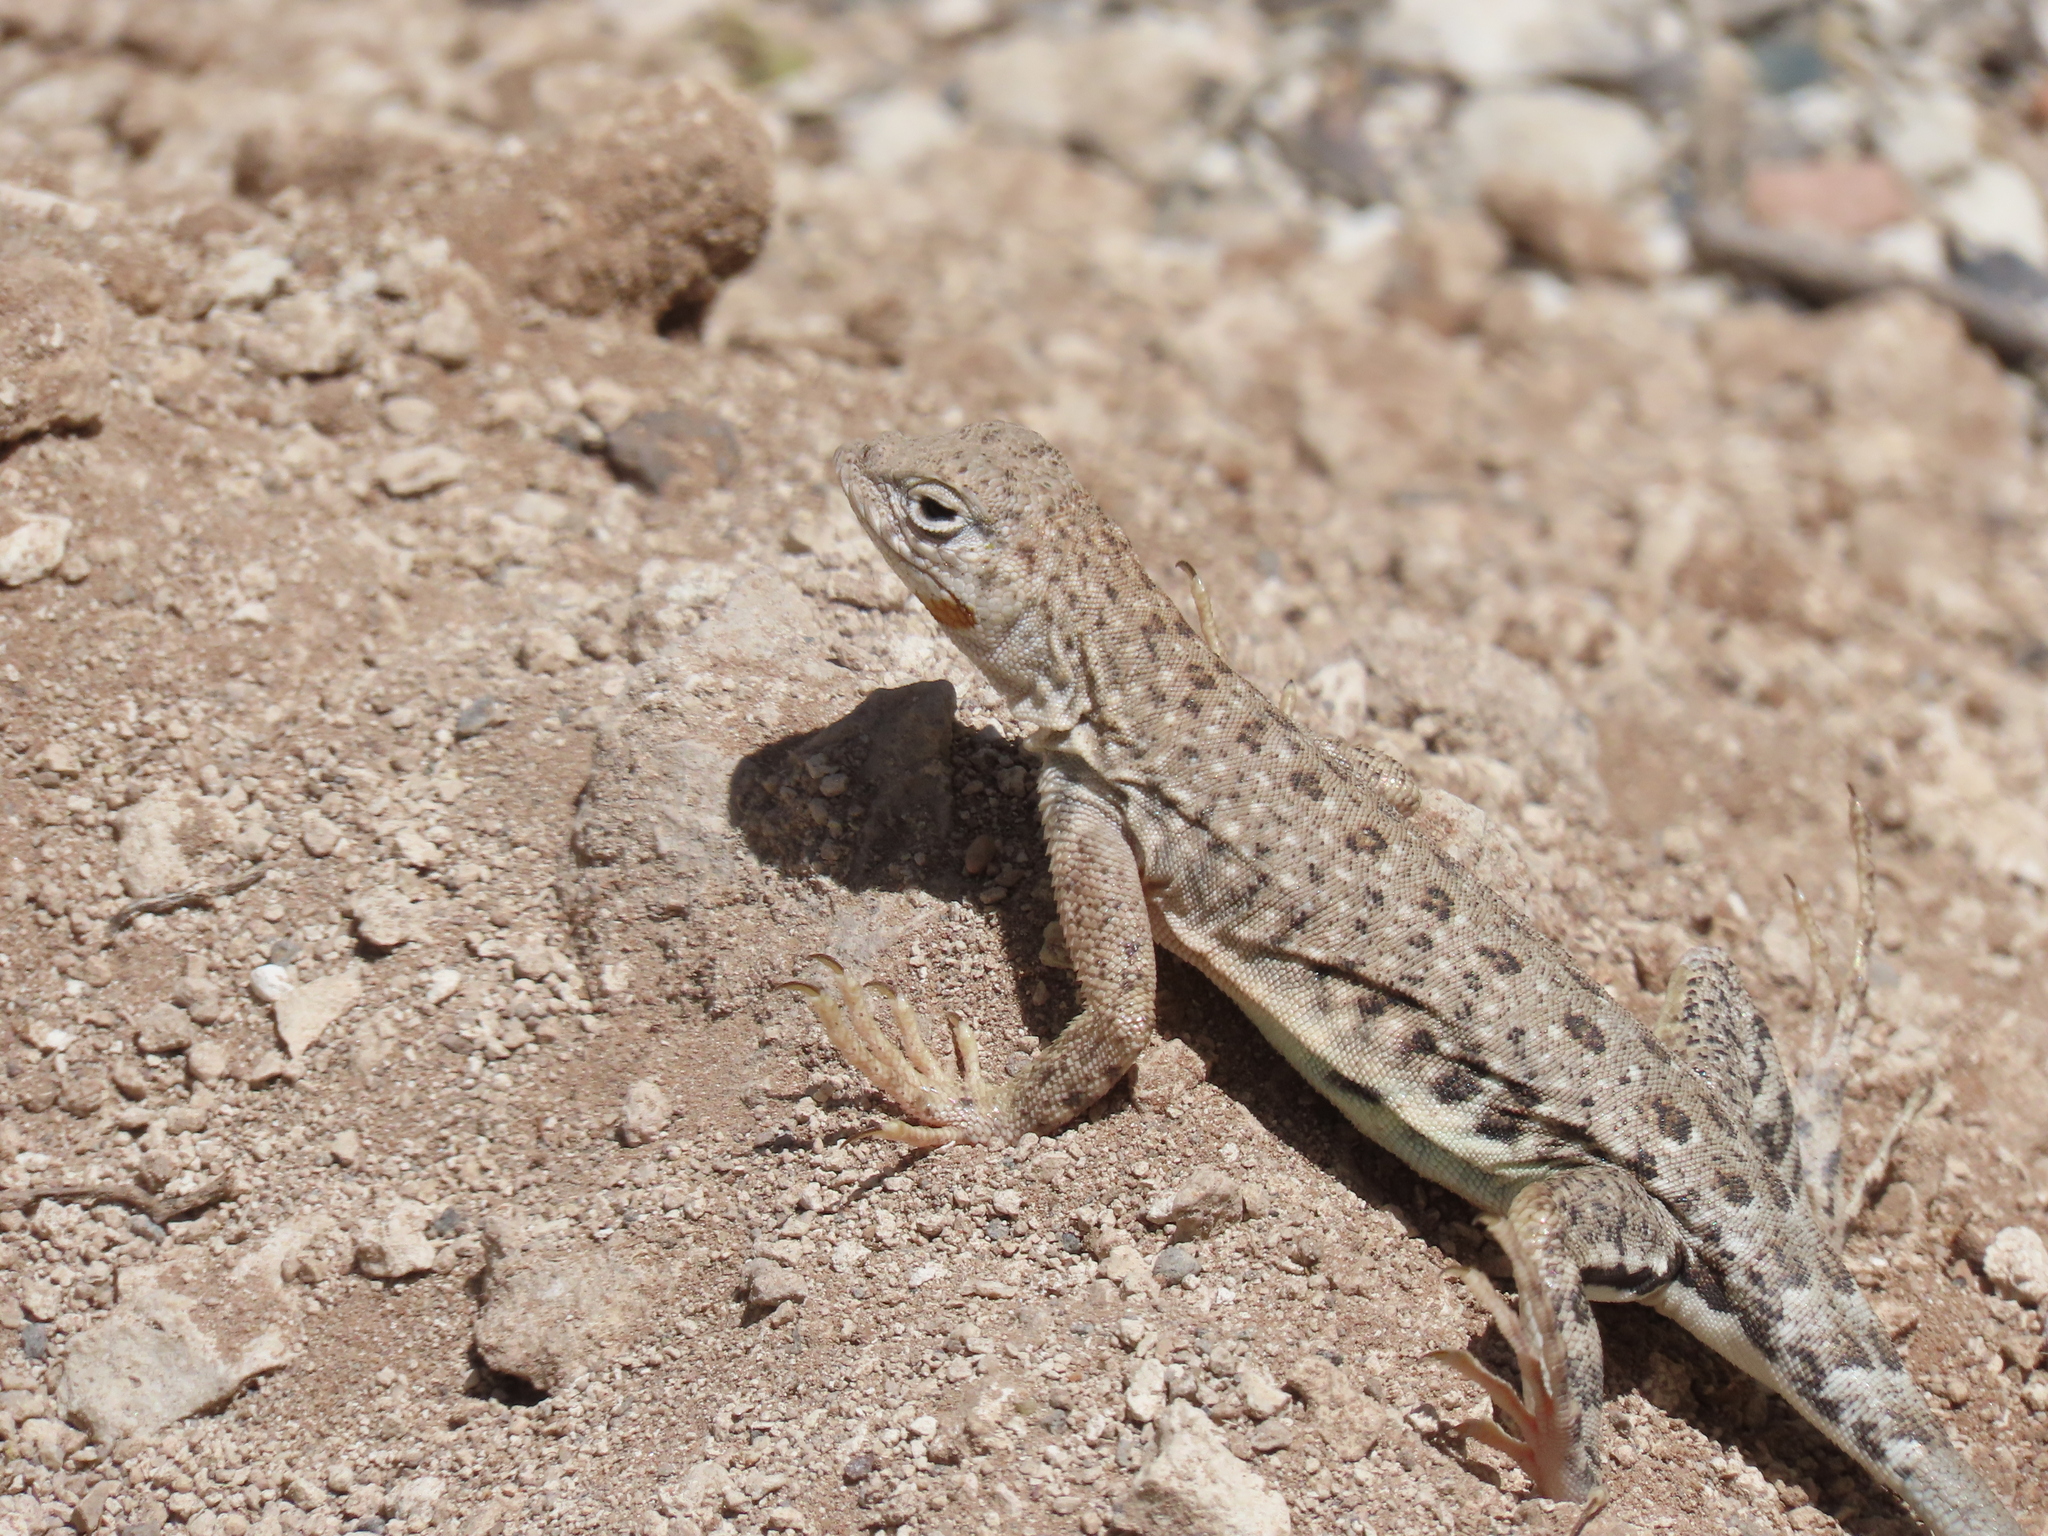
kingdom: Animalia
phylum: Chordata
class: Squamata
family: Phrynosomatidae
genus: Cophosaurus
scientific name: Cophosaurus texanus
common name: Greater earless lizard
